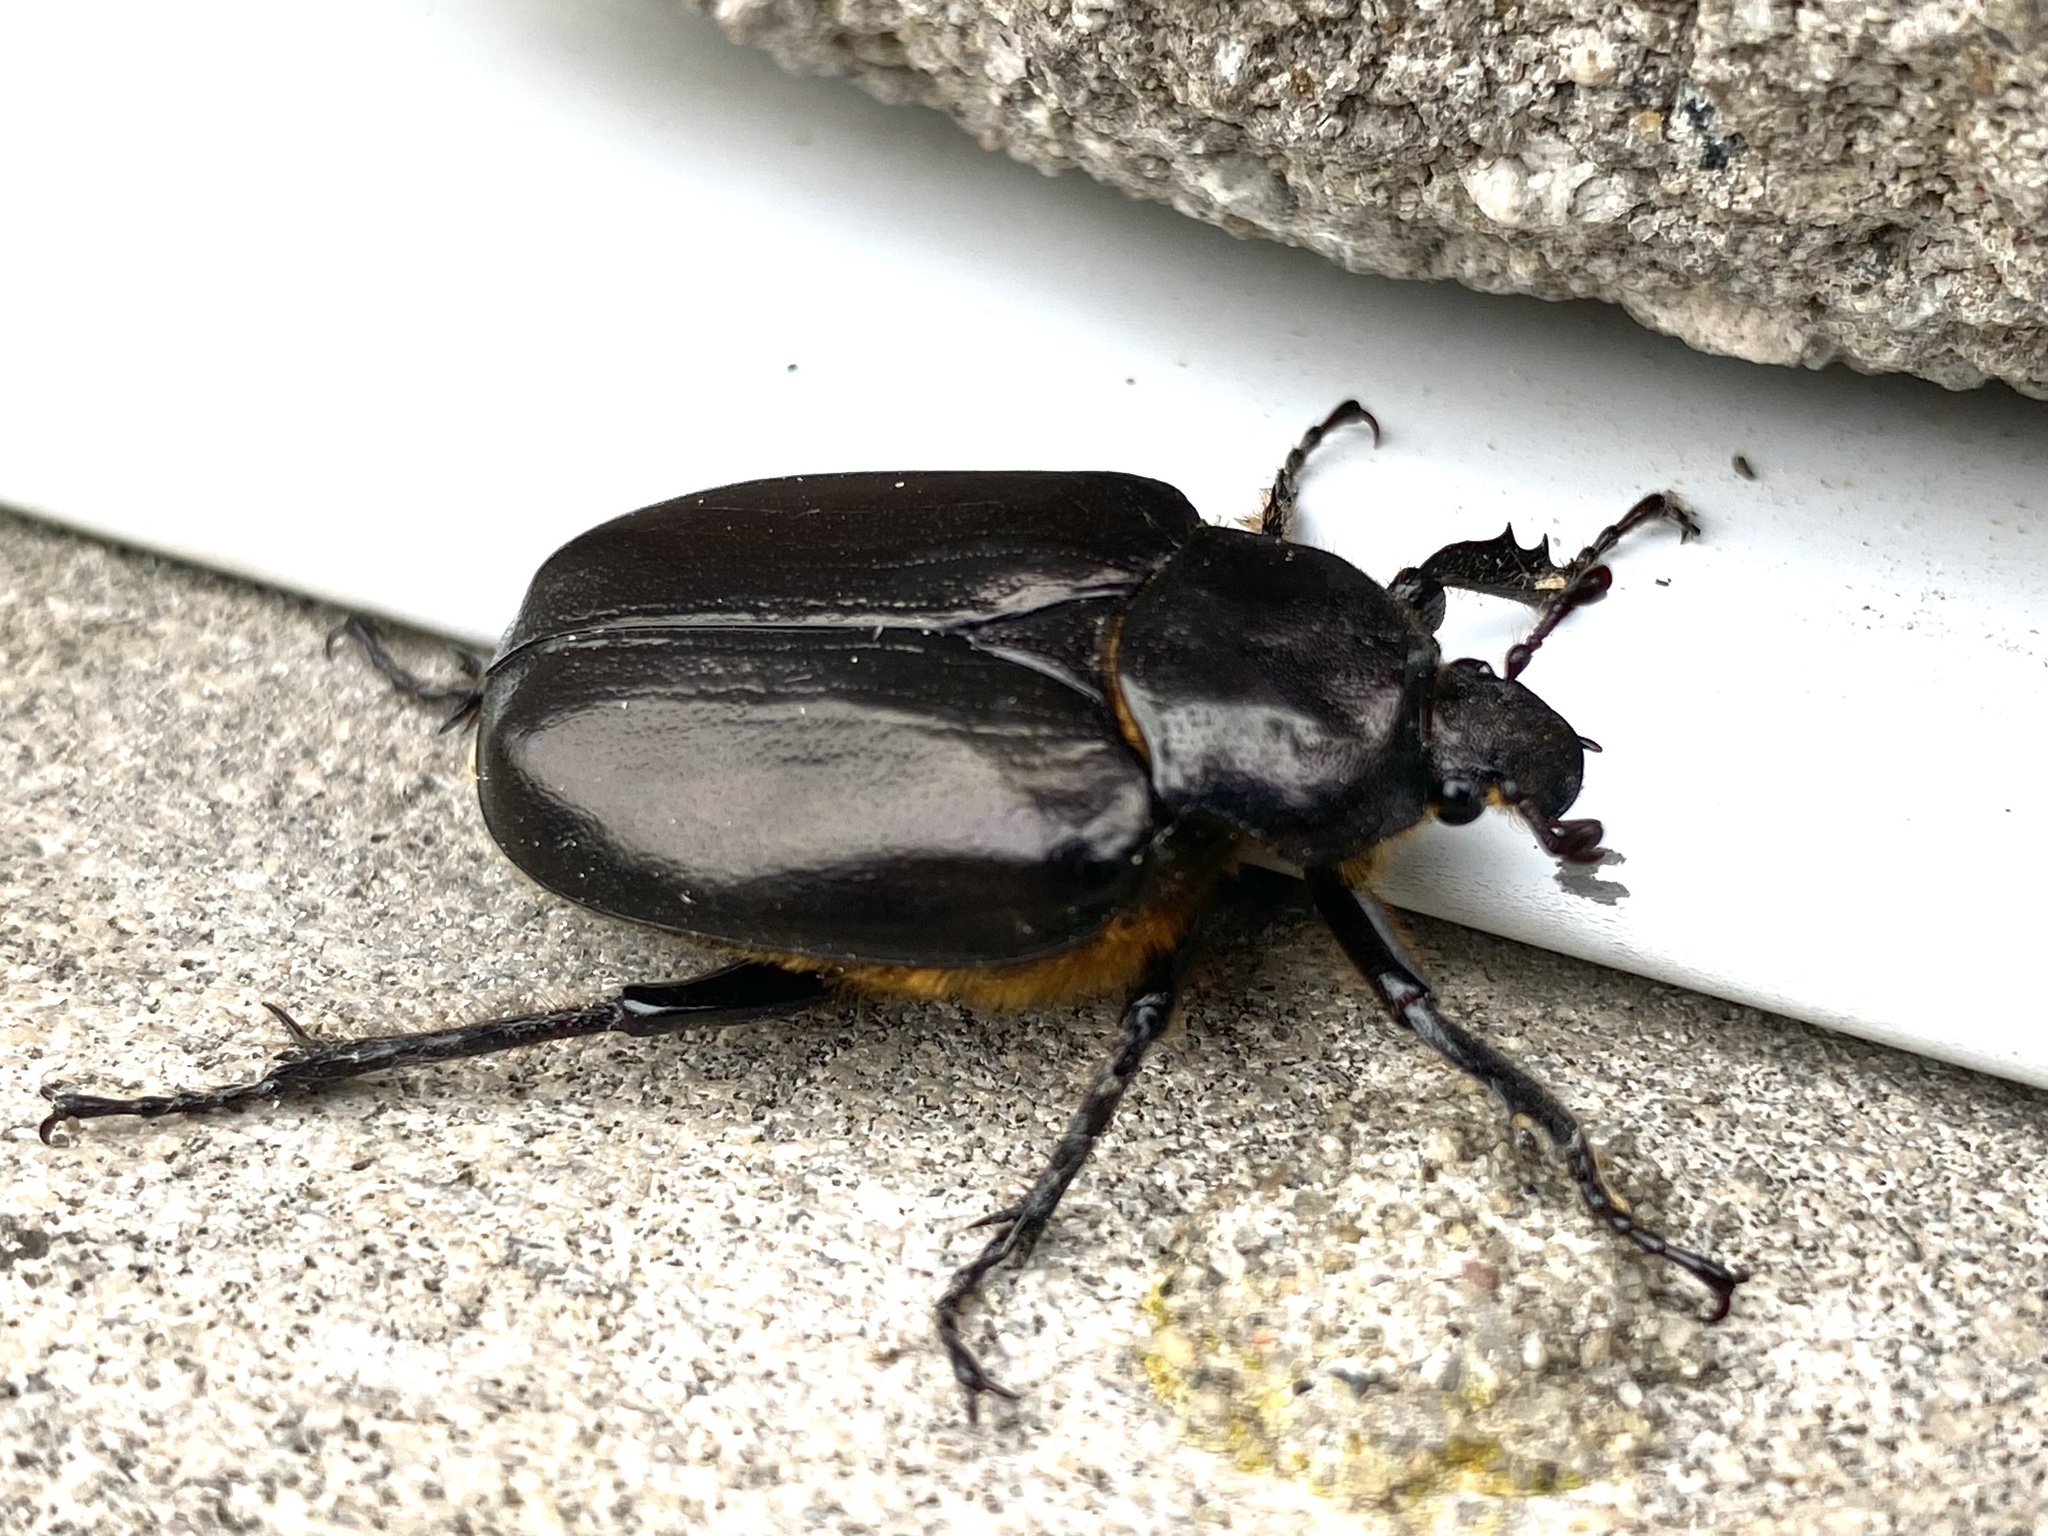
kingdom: Animalia
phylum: Arthropoda
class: Insecta
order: Coleoptera
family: Scarabaeidae
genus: Osmoderma
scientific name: Osmoderma eremicola
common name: Hermit flower beetle
